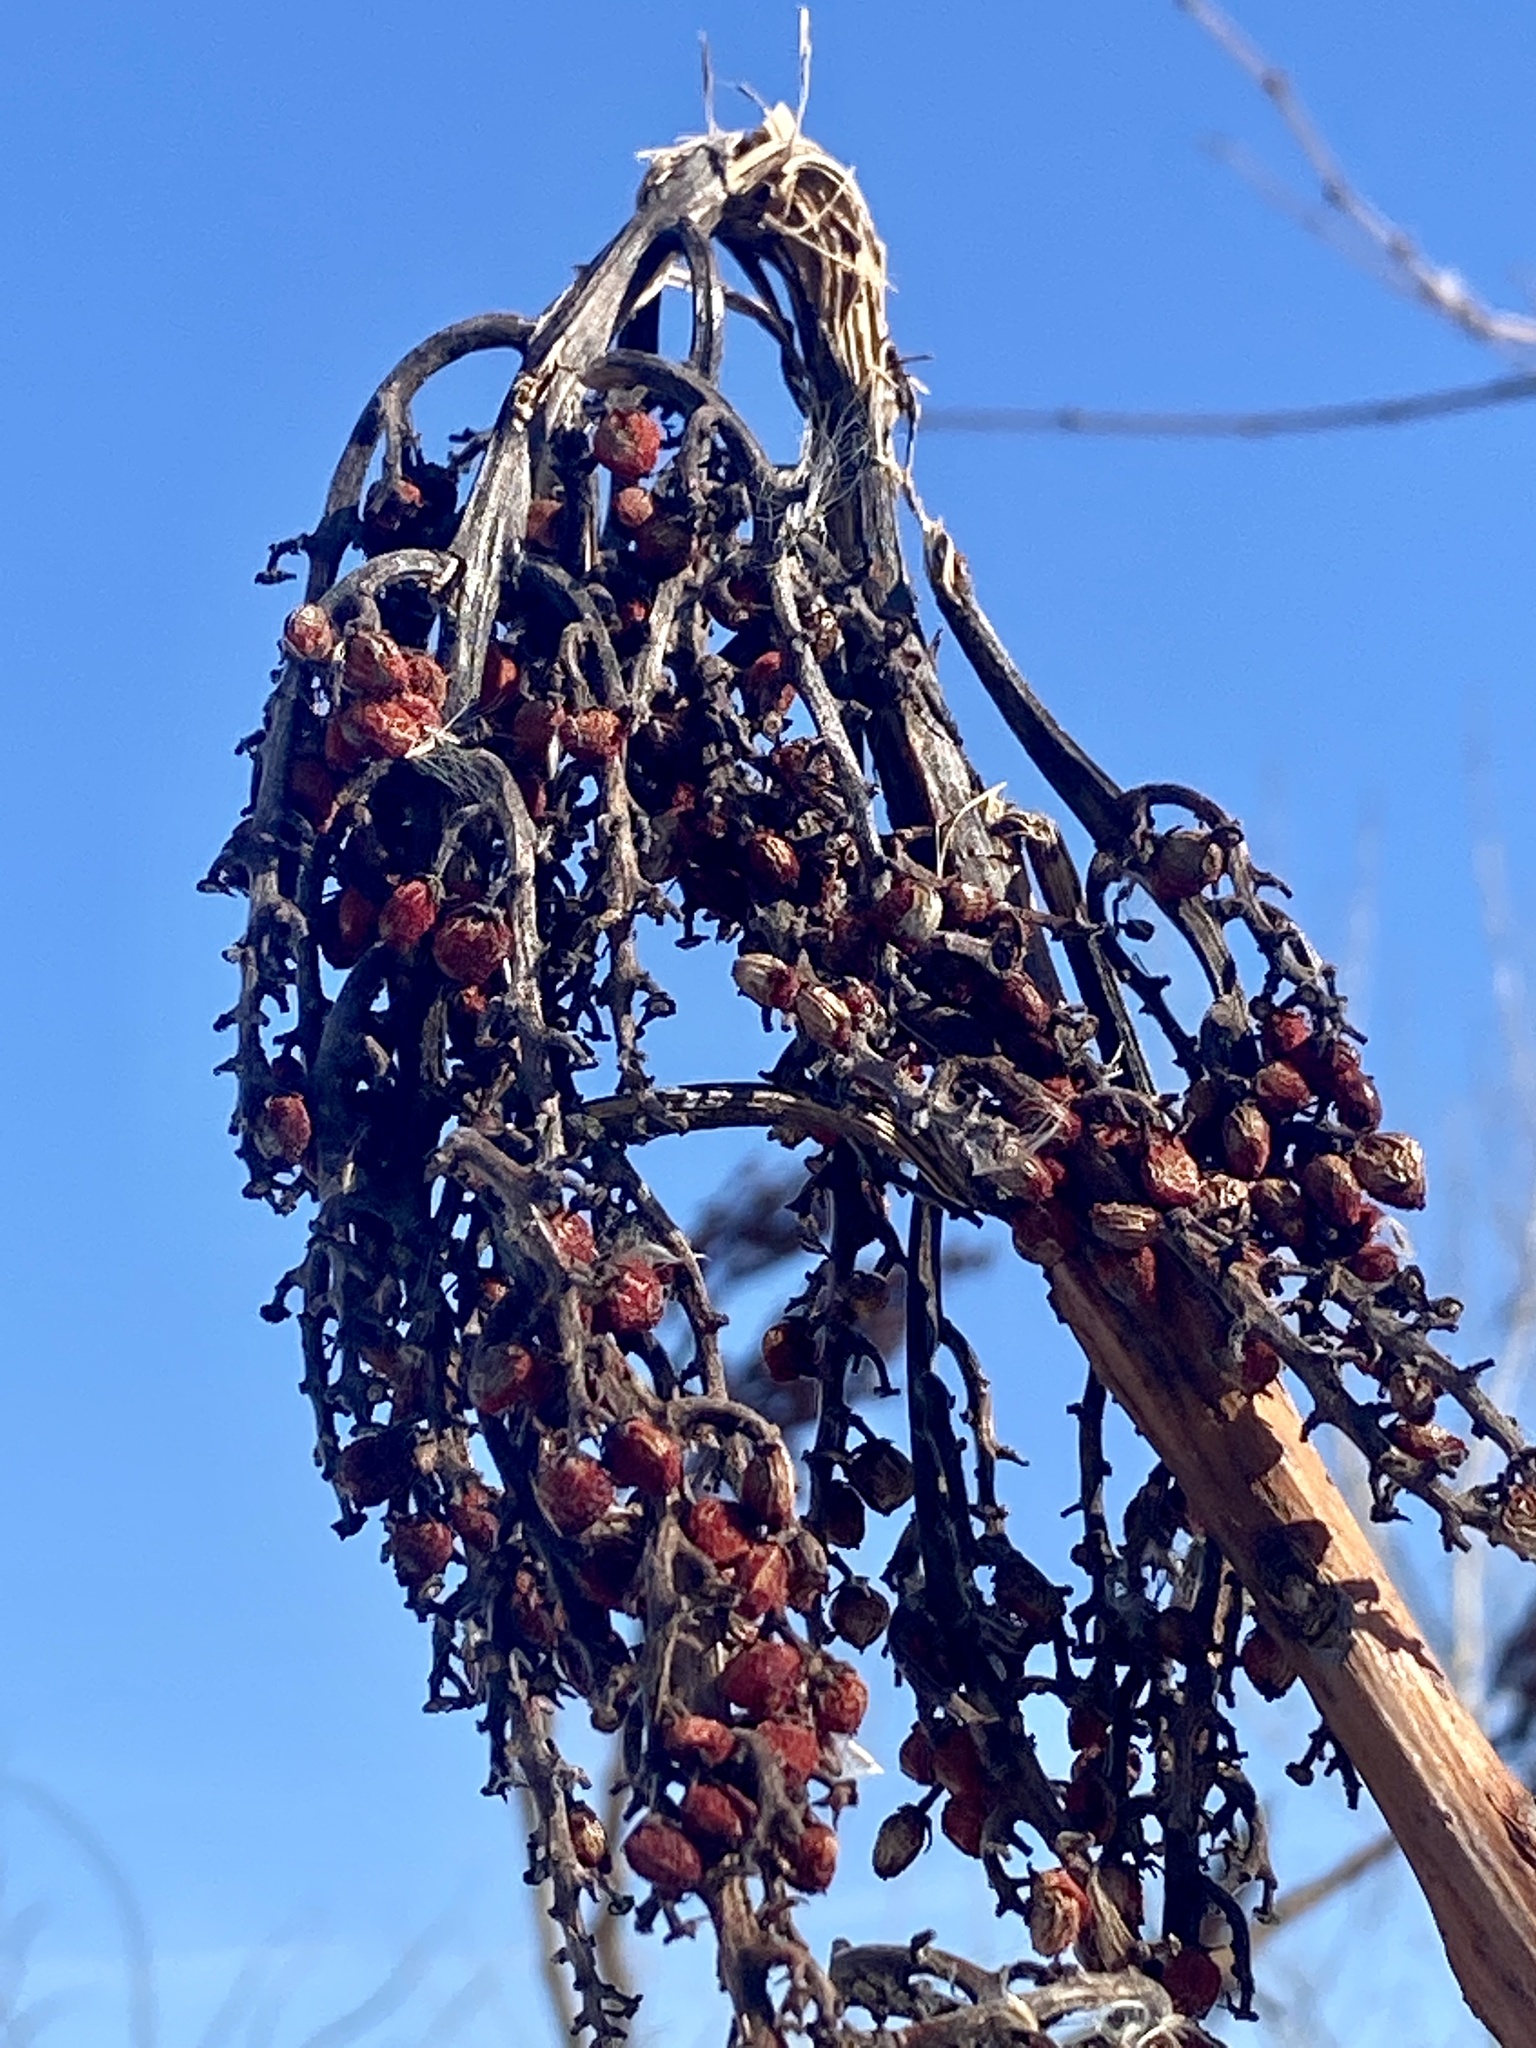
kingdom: Plantae
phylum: Tracheophyta
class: Magnoliopsida
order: Sapindales
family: Anacardiaceae
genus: Rhus
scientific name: Rhus glabra
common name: Scarlet sumac
